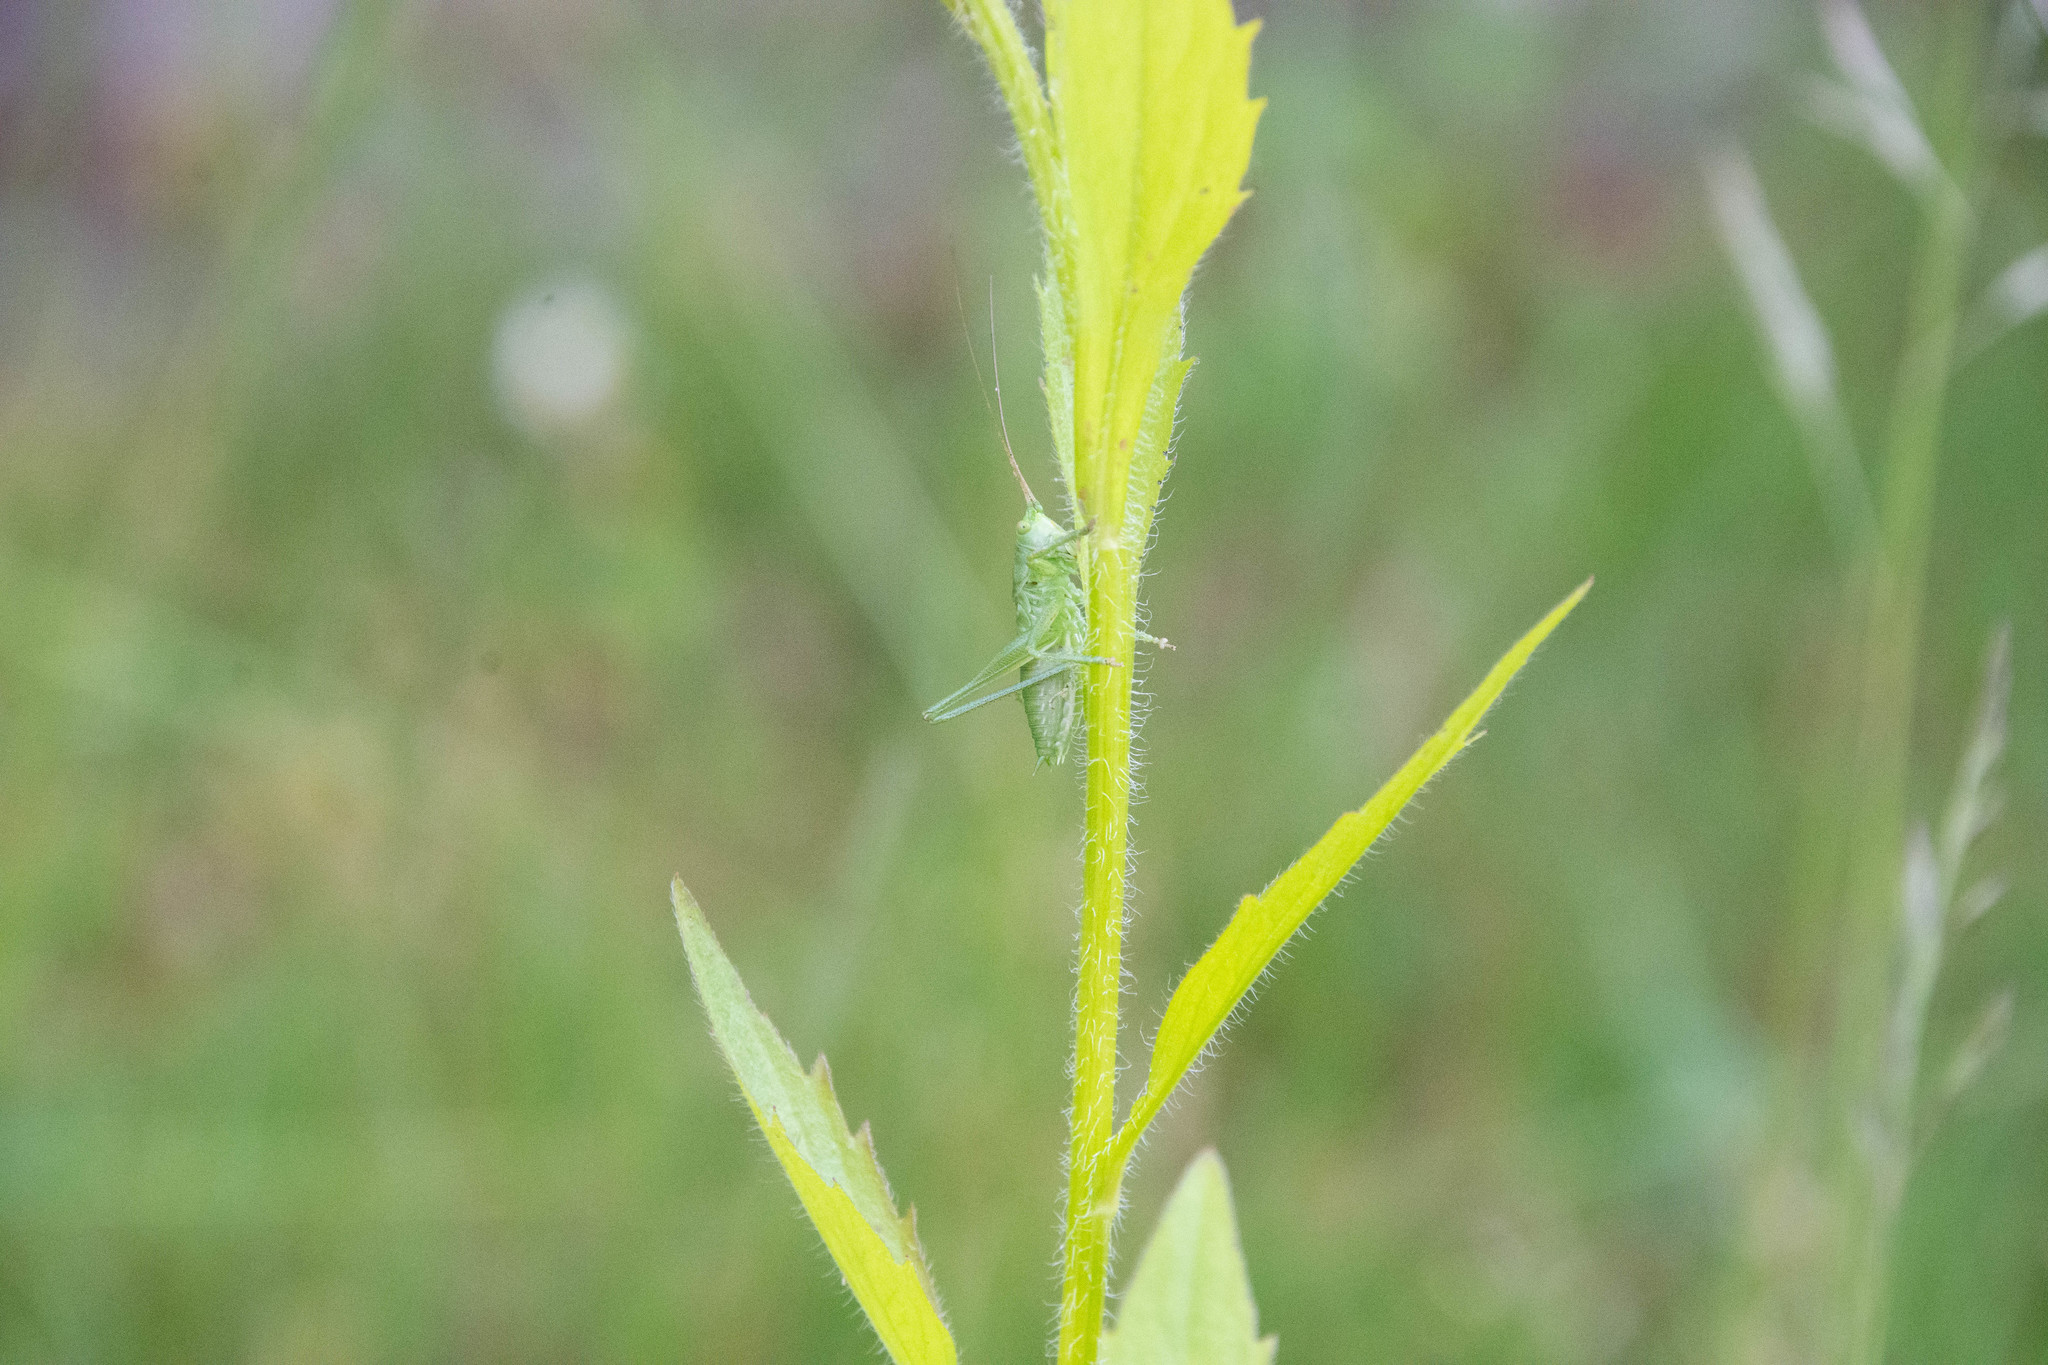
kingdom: Animalia
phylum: Arthropoda
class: Insecta
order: Orthoptera
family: Tettigoniidae
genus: Tettigonia
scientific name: Tettigonia viridissima
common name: Great green bush-cricket
